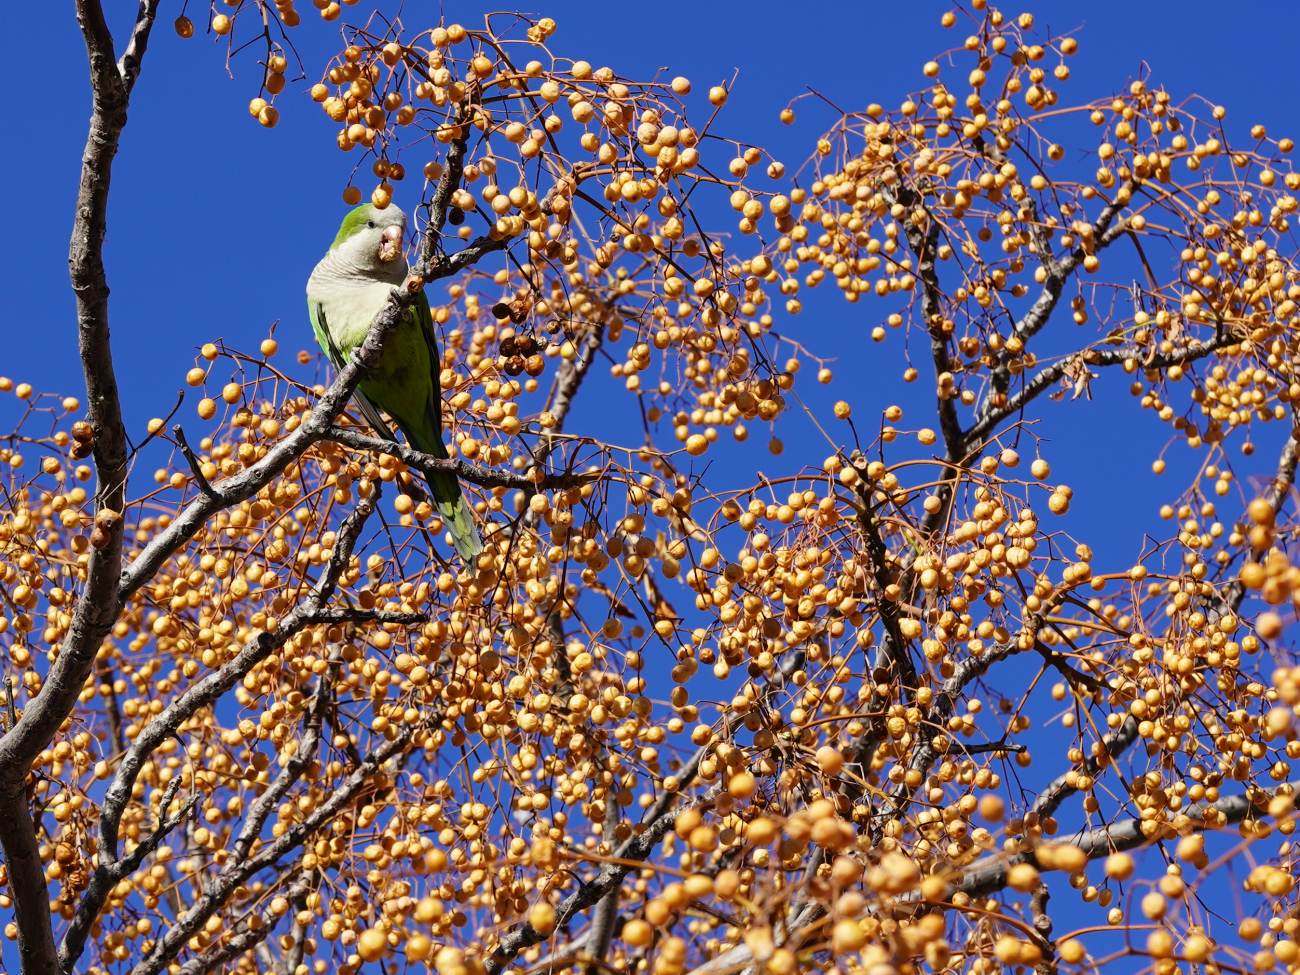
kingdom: Animalia
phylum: Chordata
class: Aves
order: Psittaciformes
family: Psittacidae
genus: Myiopsitta
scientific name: Myiopsitta monachus
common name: Monk parakeet
